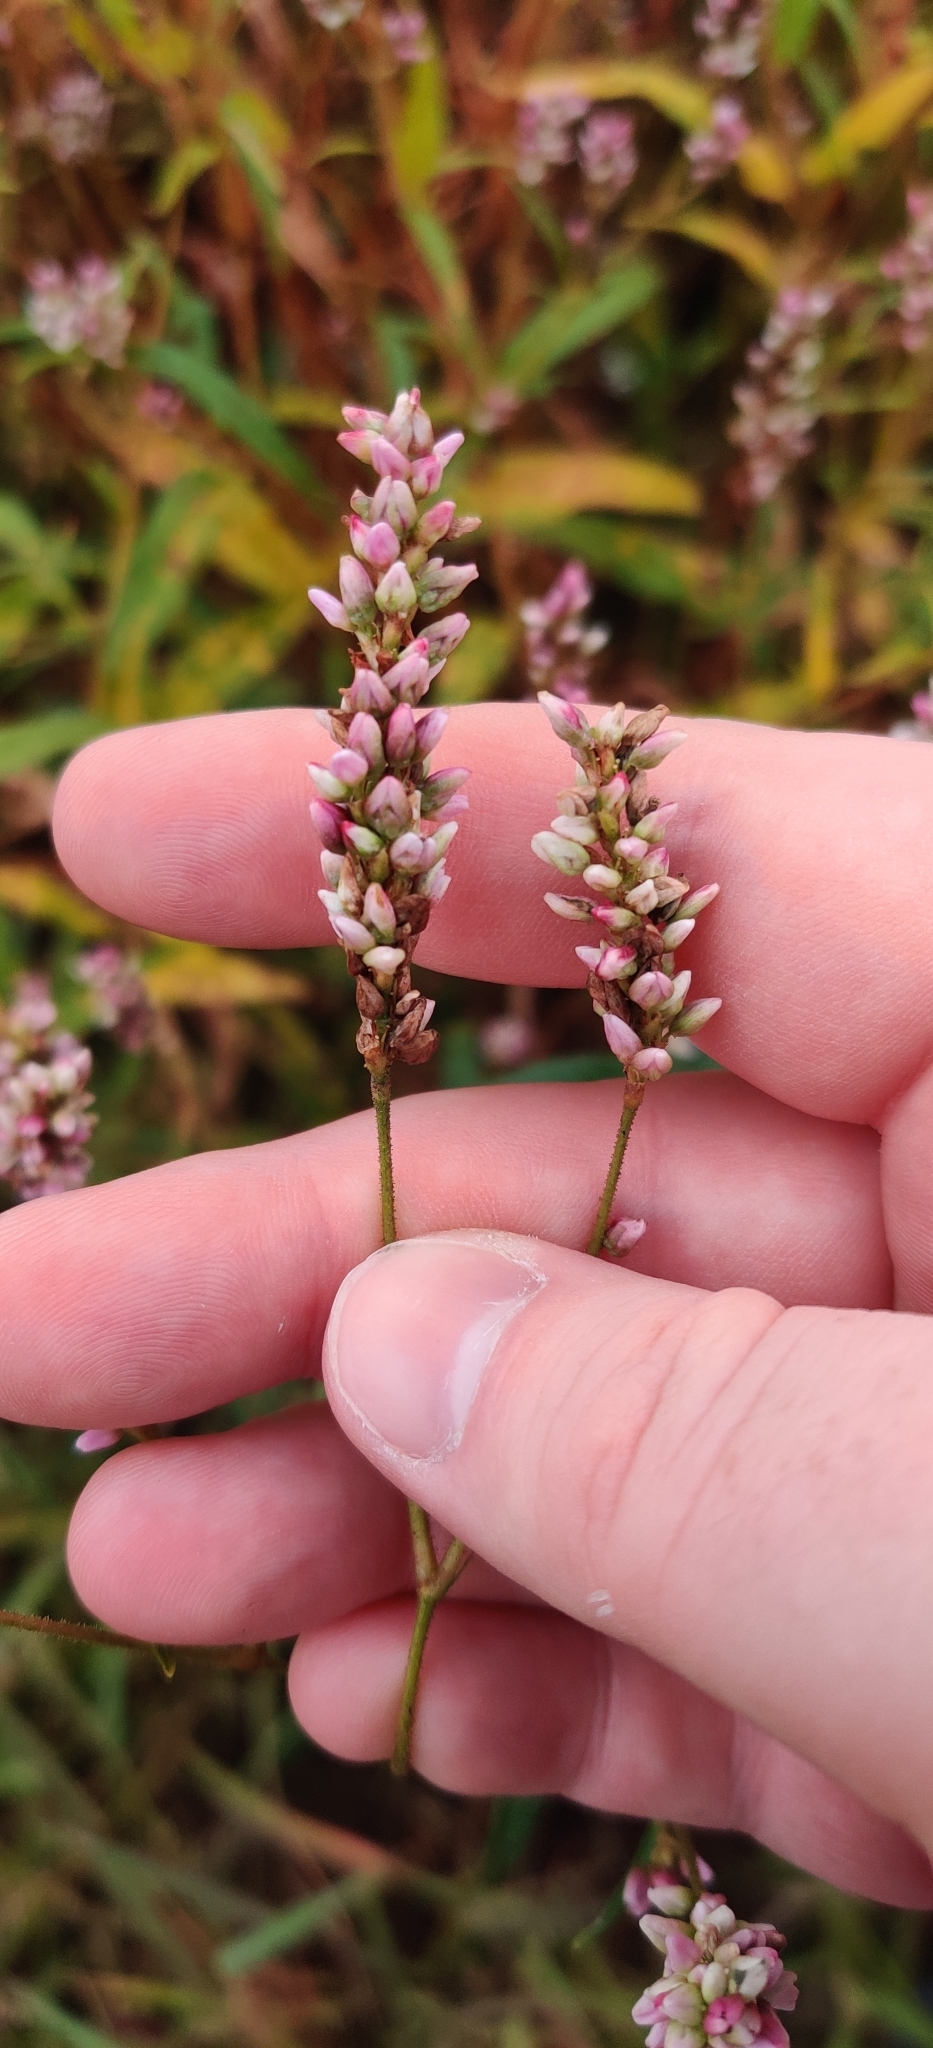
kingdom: Plantae
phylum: Tracheophyta
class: Magnoliopsida
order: Caryophyllales
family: Polygonaceae
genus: Persicaria
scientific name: Persicaria pensylvanica
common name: Pinkweed
